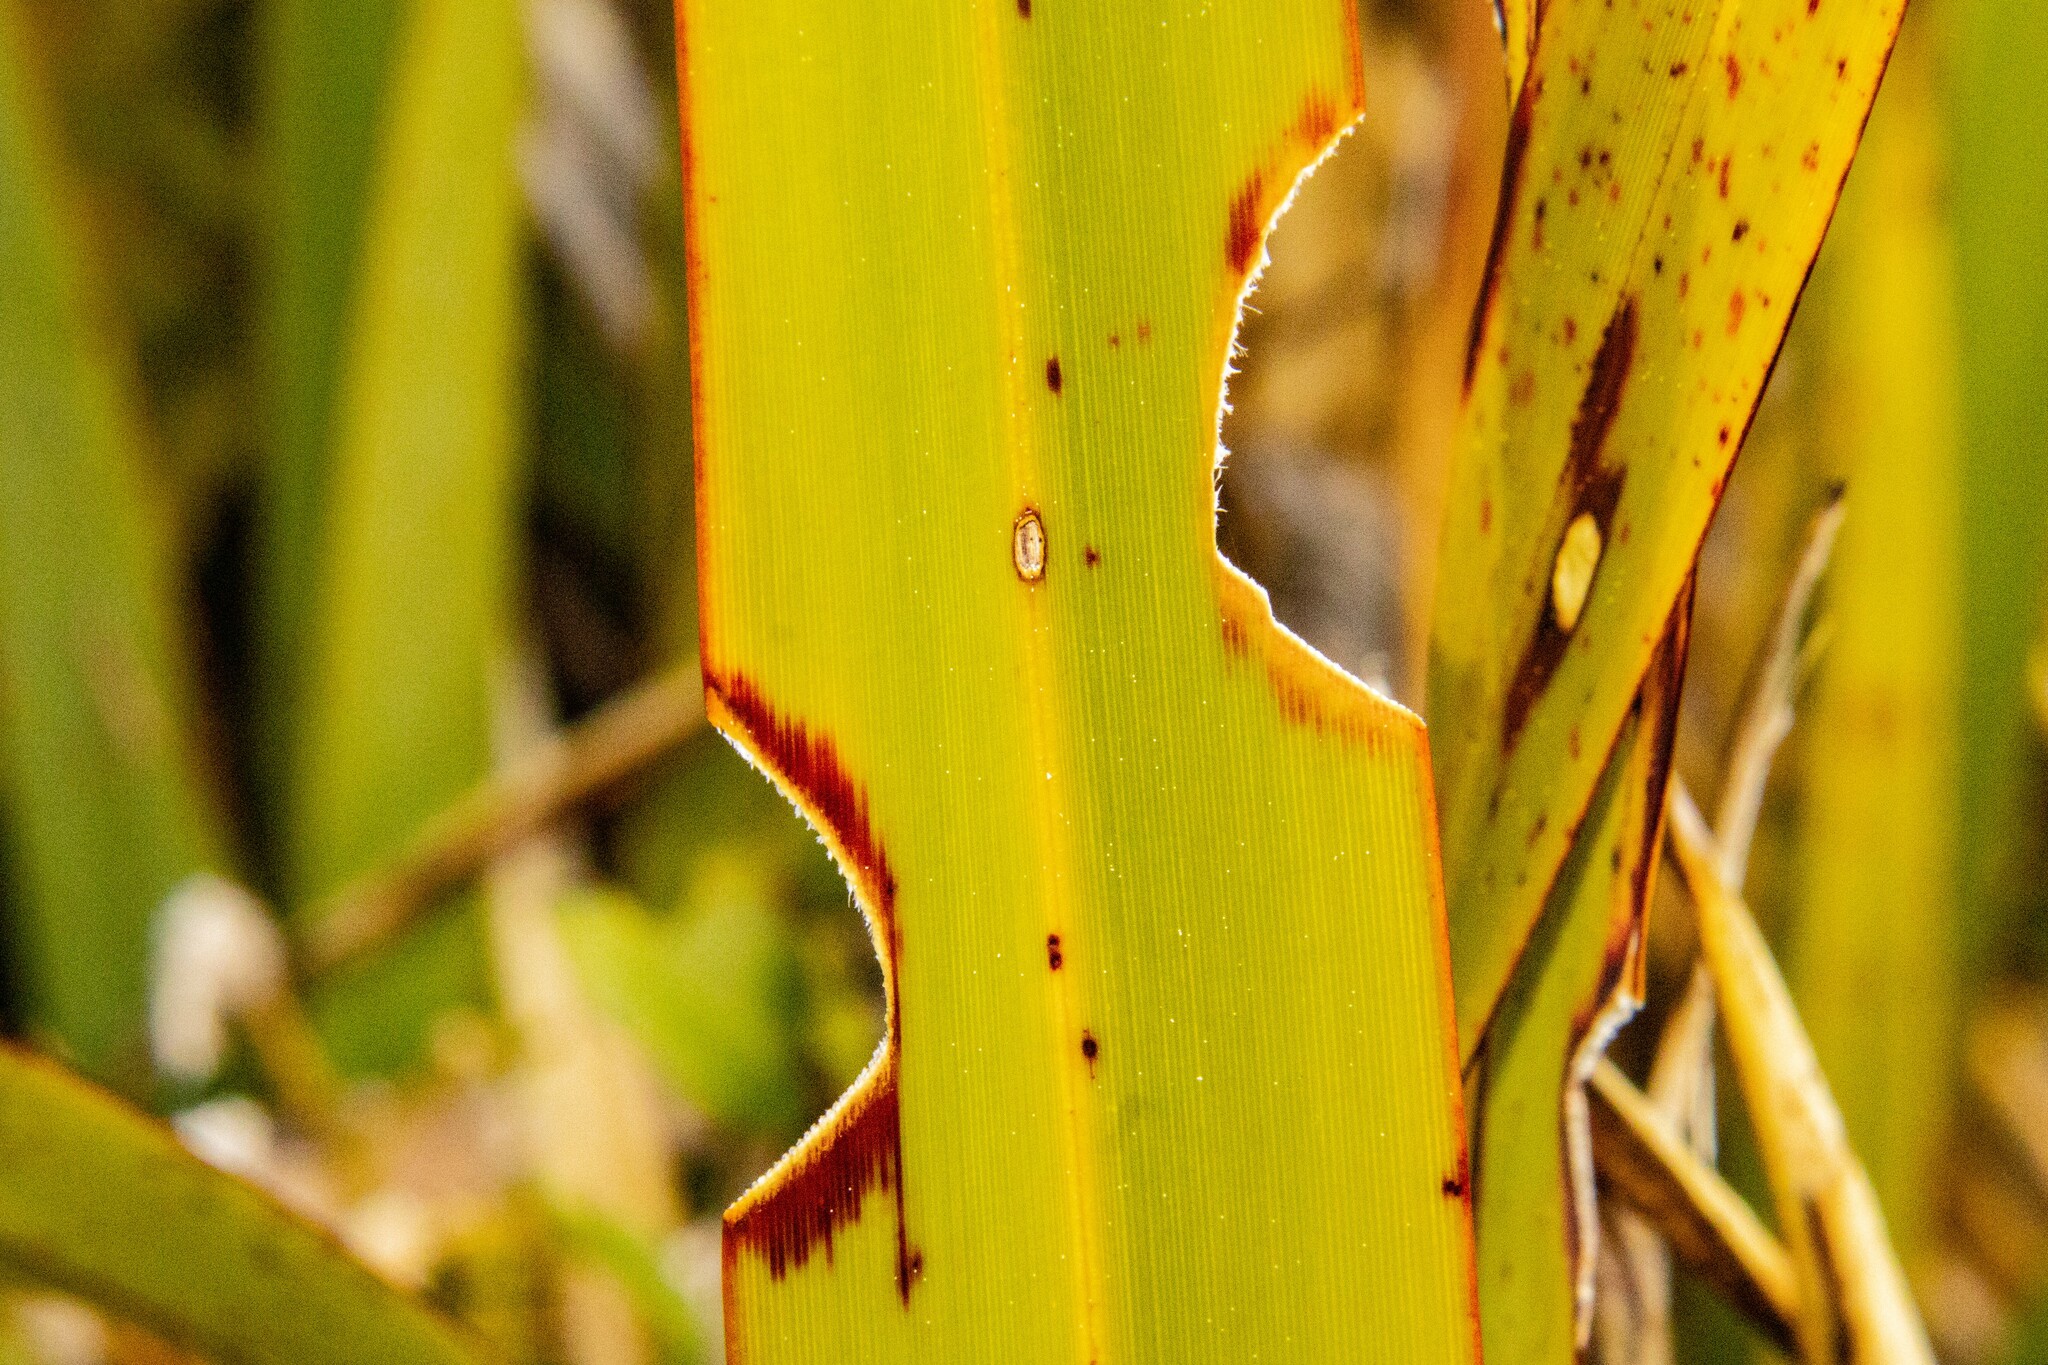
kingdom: Animalia
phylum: Arthropoda
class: Insecta
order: Lepidoptera
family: Noctuidae
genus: Ichneutica
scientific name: Ichneutica
